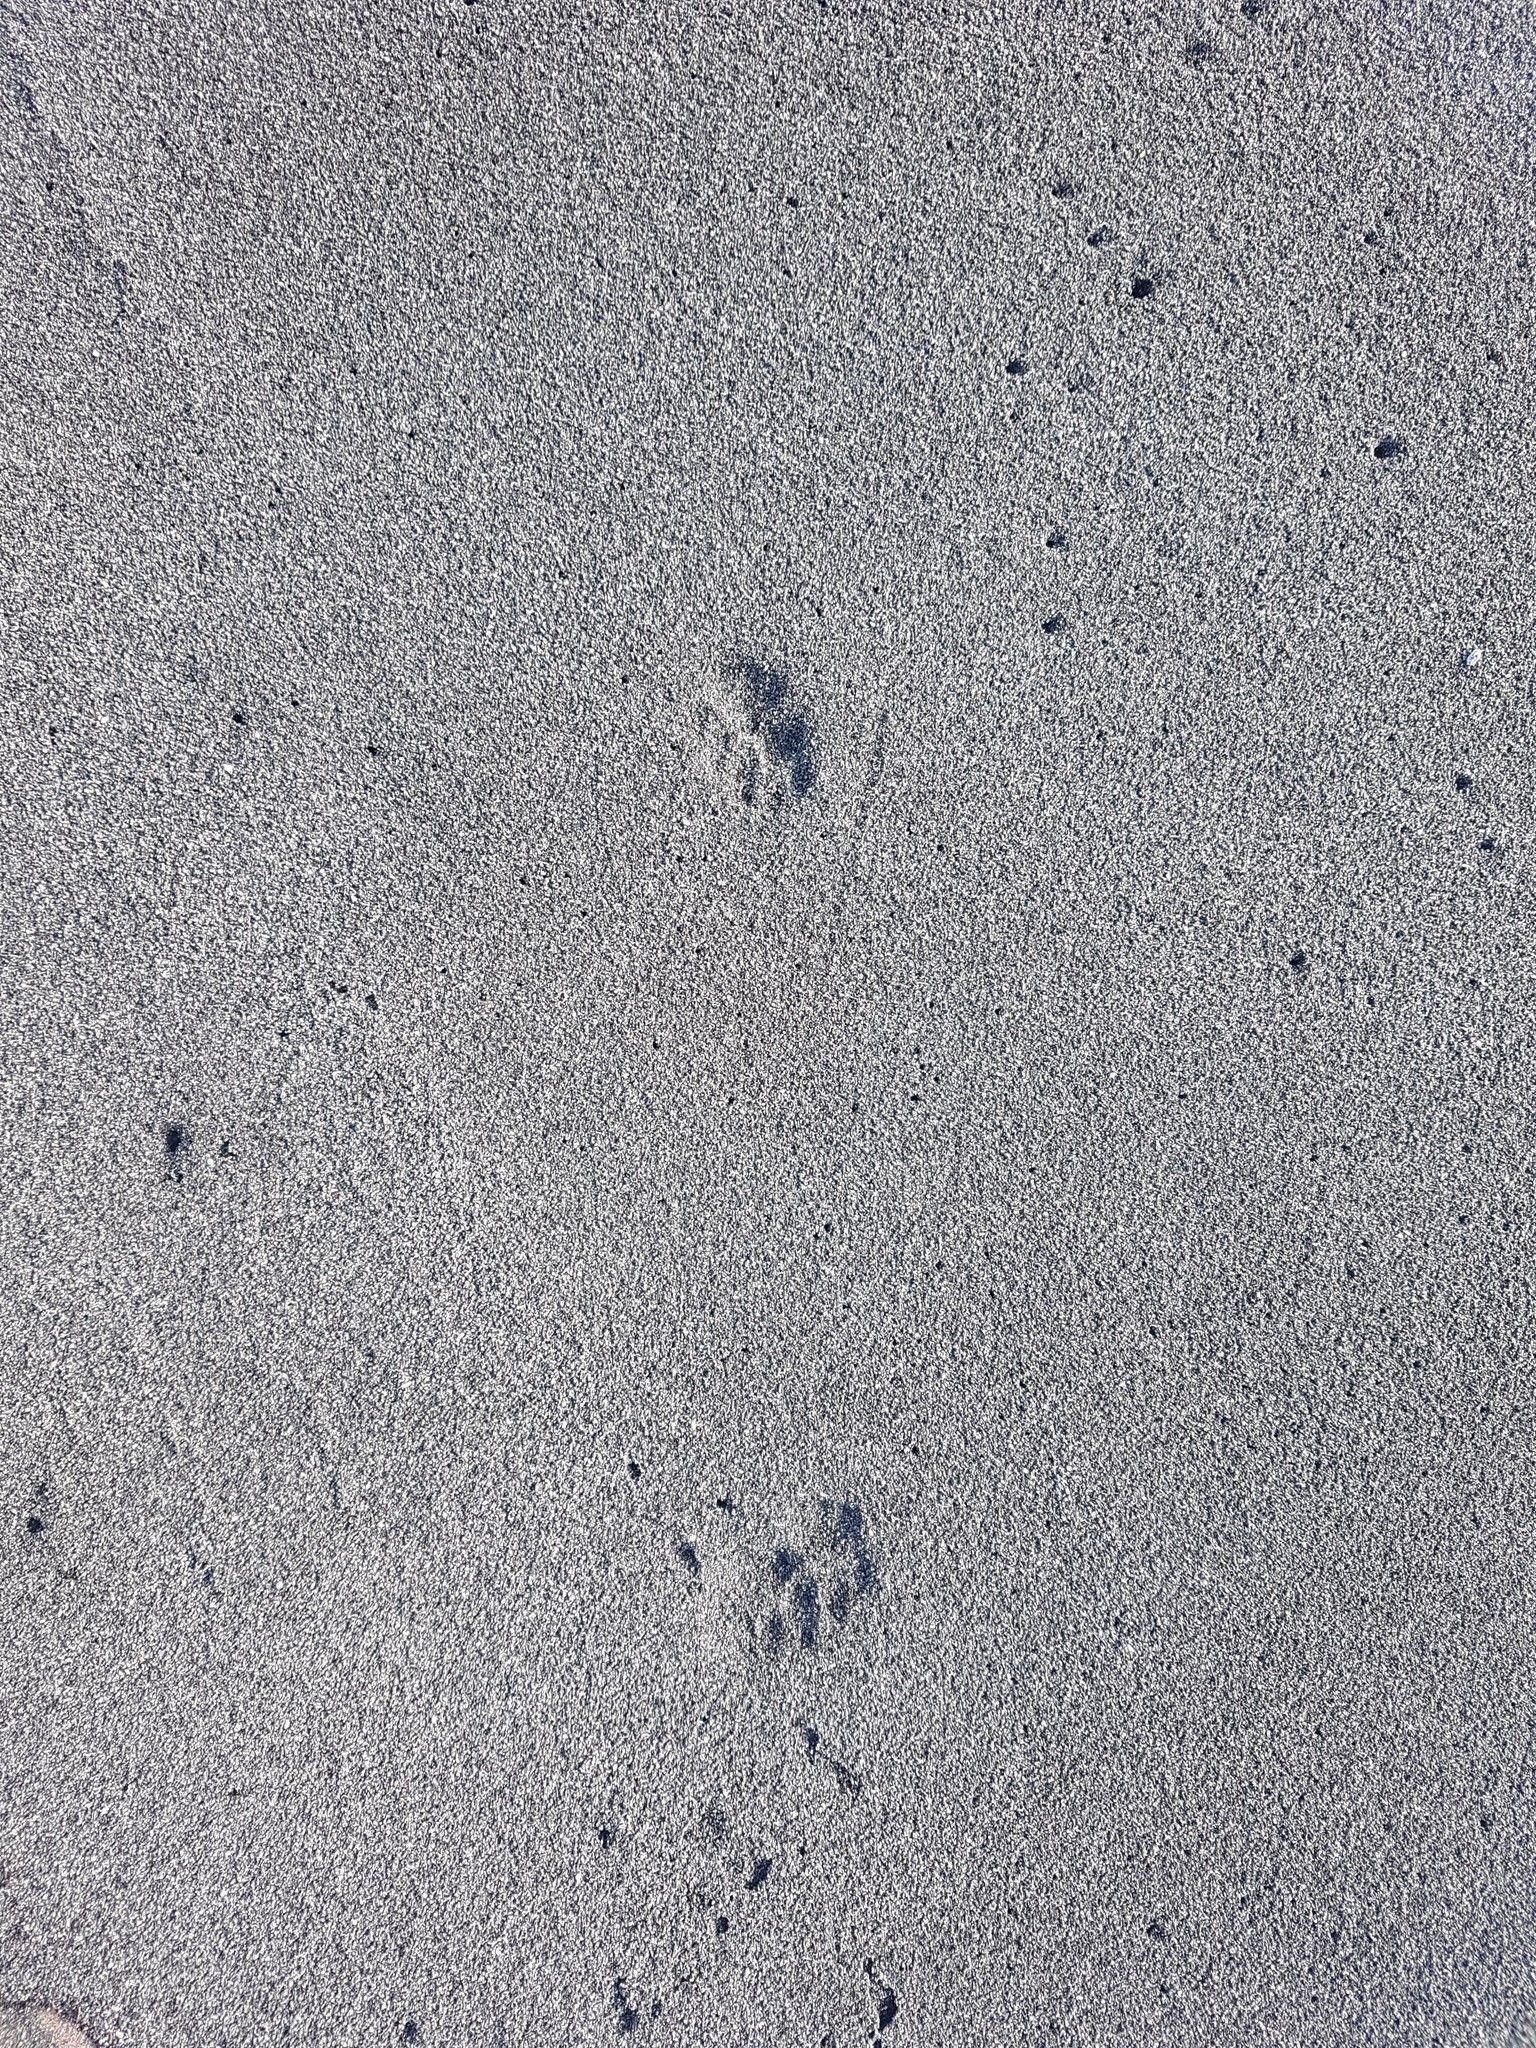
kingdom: Animalia
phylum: Chordata
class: Mammalia
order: Carnivora
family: Felidae
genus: Felis
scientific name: Felis catus
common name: Domestic cat
